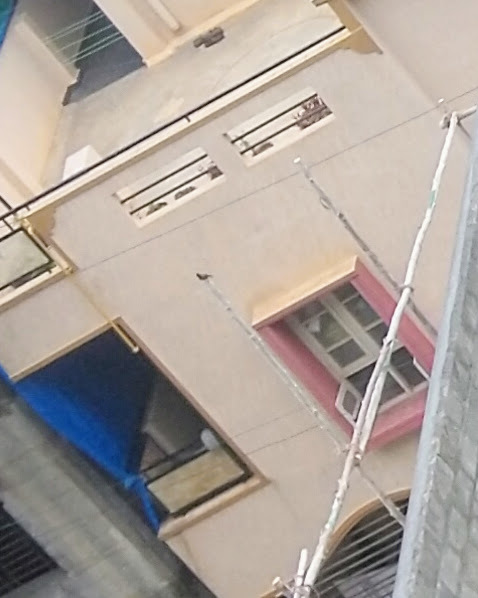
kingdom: Animalia
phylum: Chordata
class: Aves
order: Passeriformes
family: Pycnonotidae
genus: Pycnonotus
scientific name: Pycnonotus cafer
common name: Red-vented bulbul
